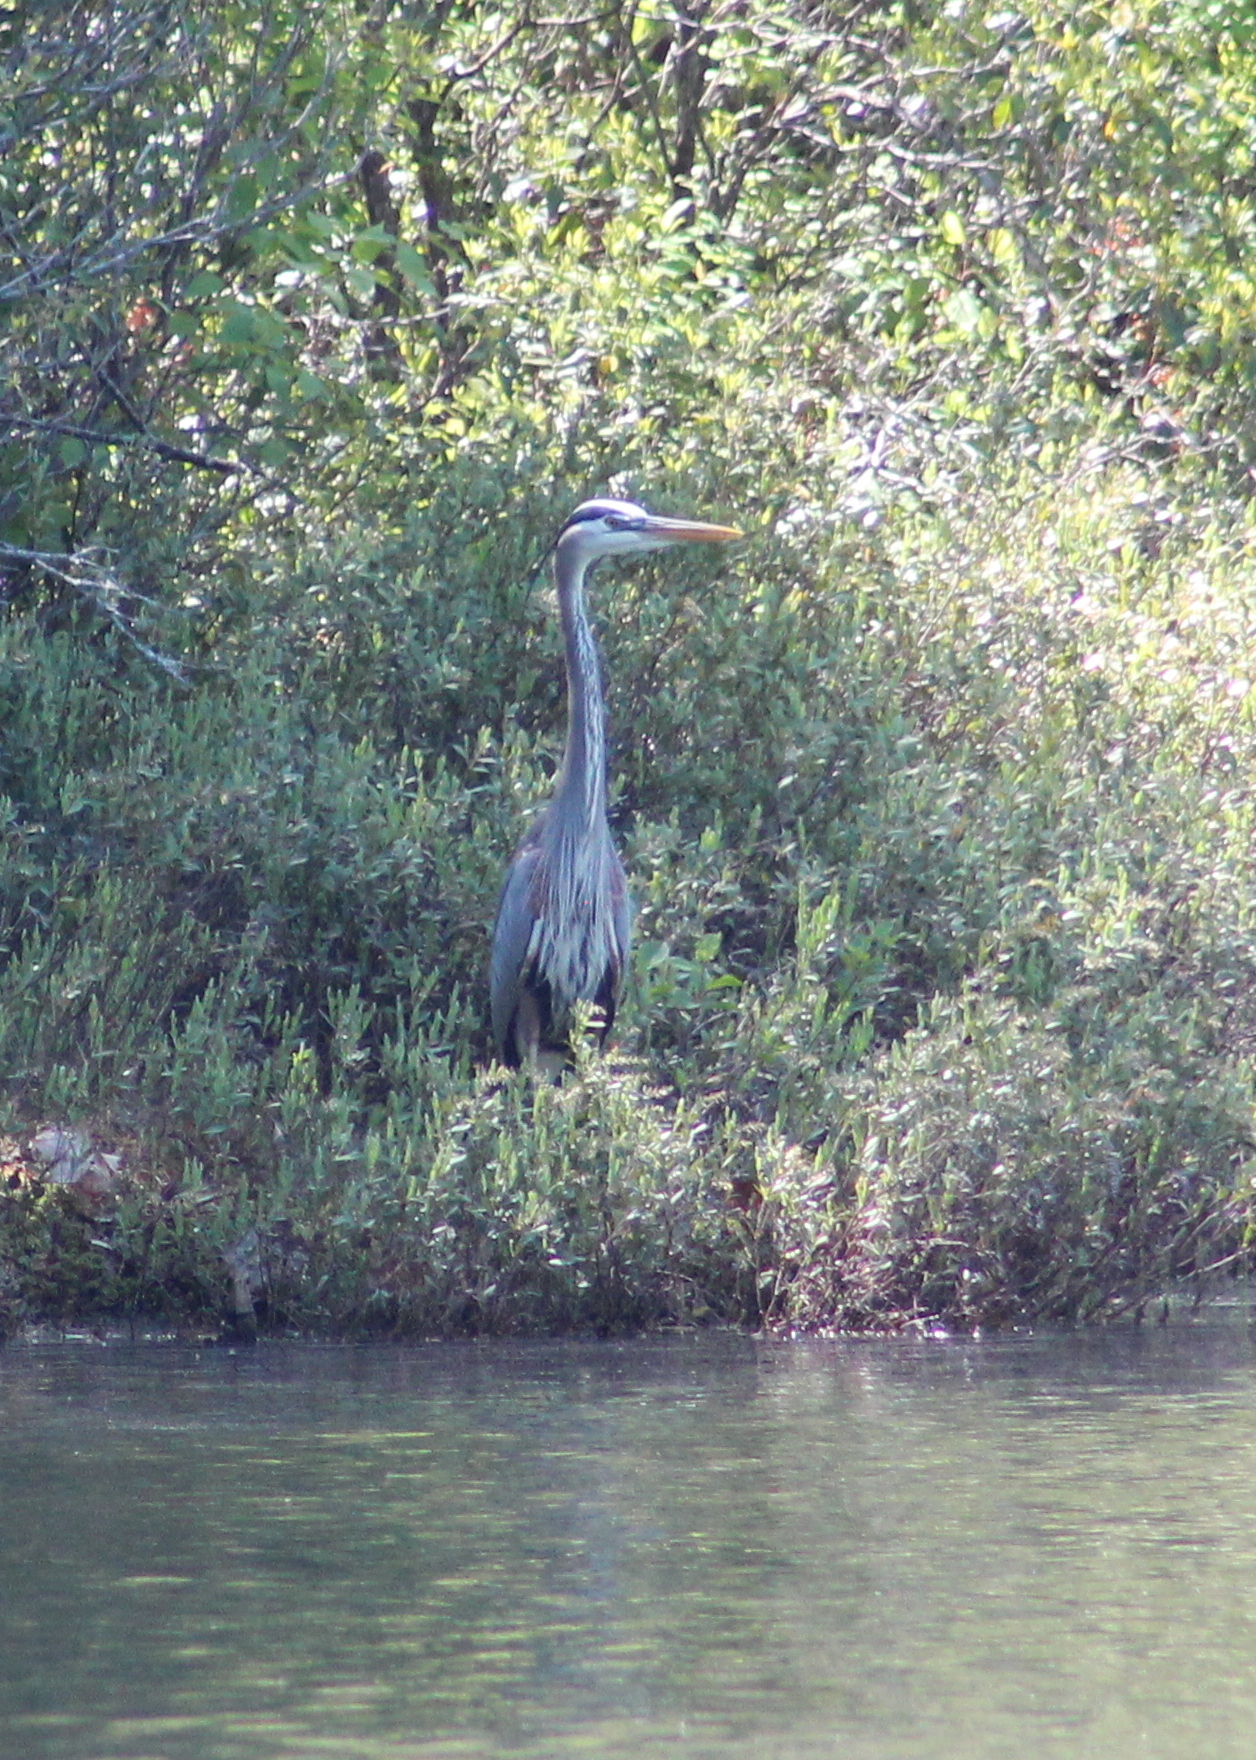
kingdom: Animalia
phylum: Chordata
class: Aves
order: Pelecaniformes
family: Ardeidae
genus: Ardea
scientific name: Ardea herodias
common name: Great blue heron
